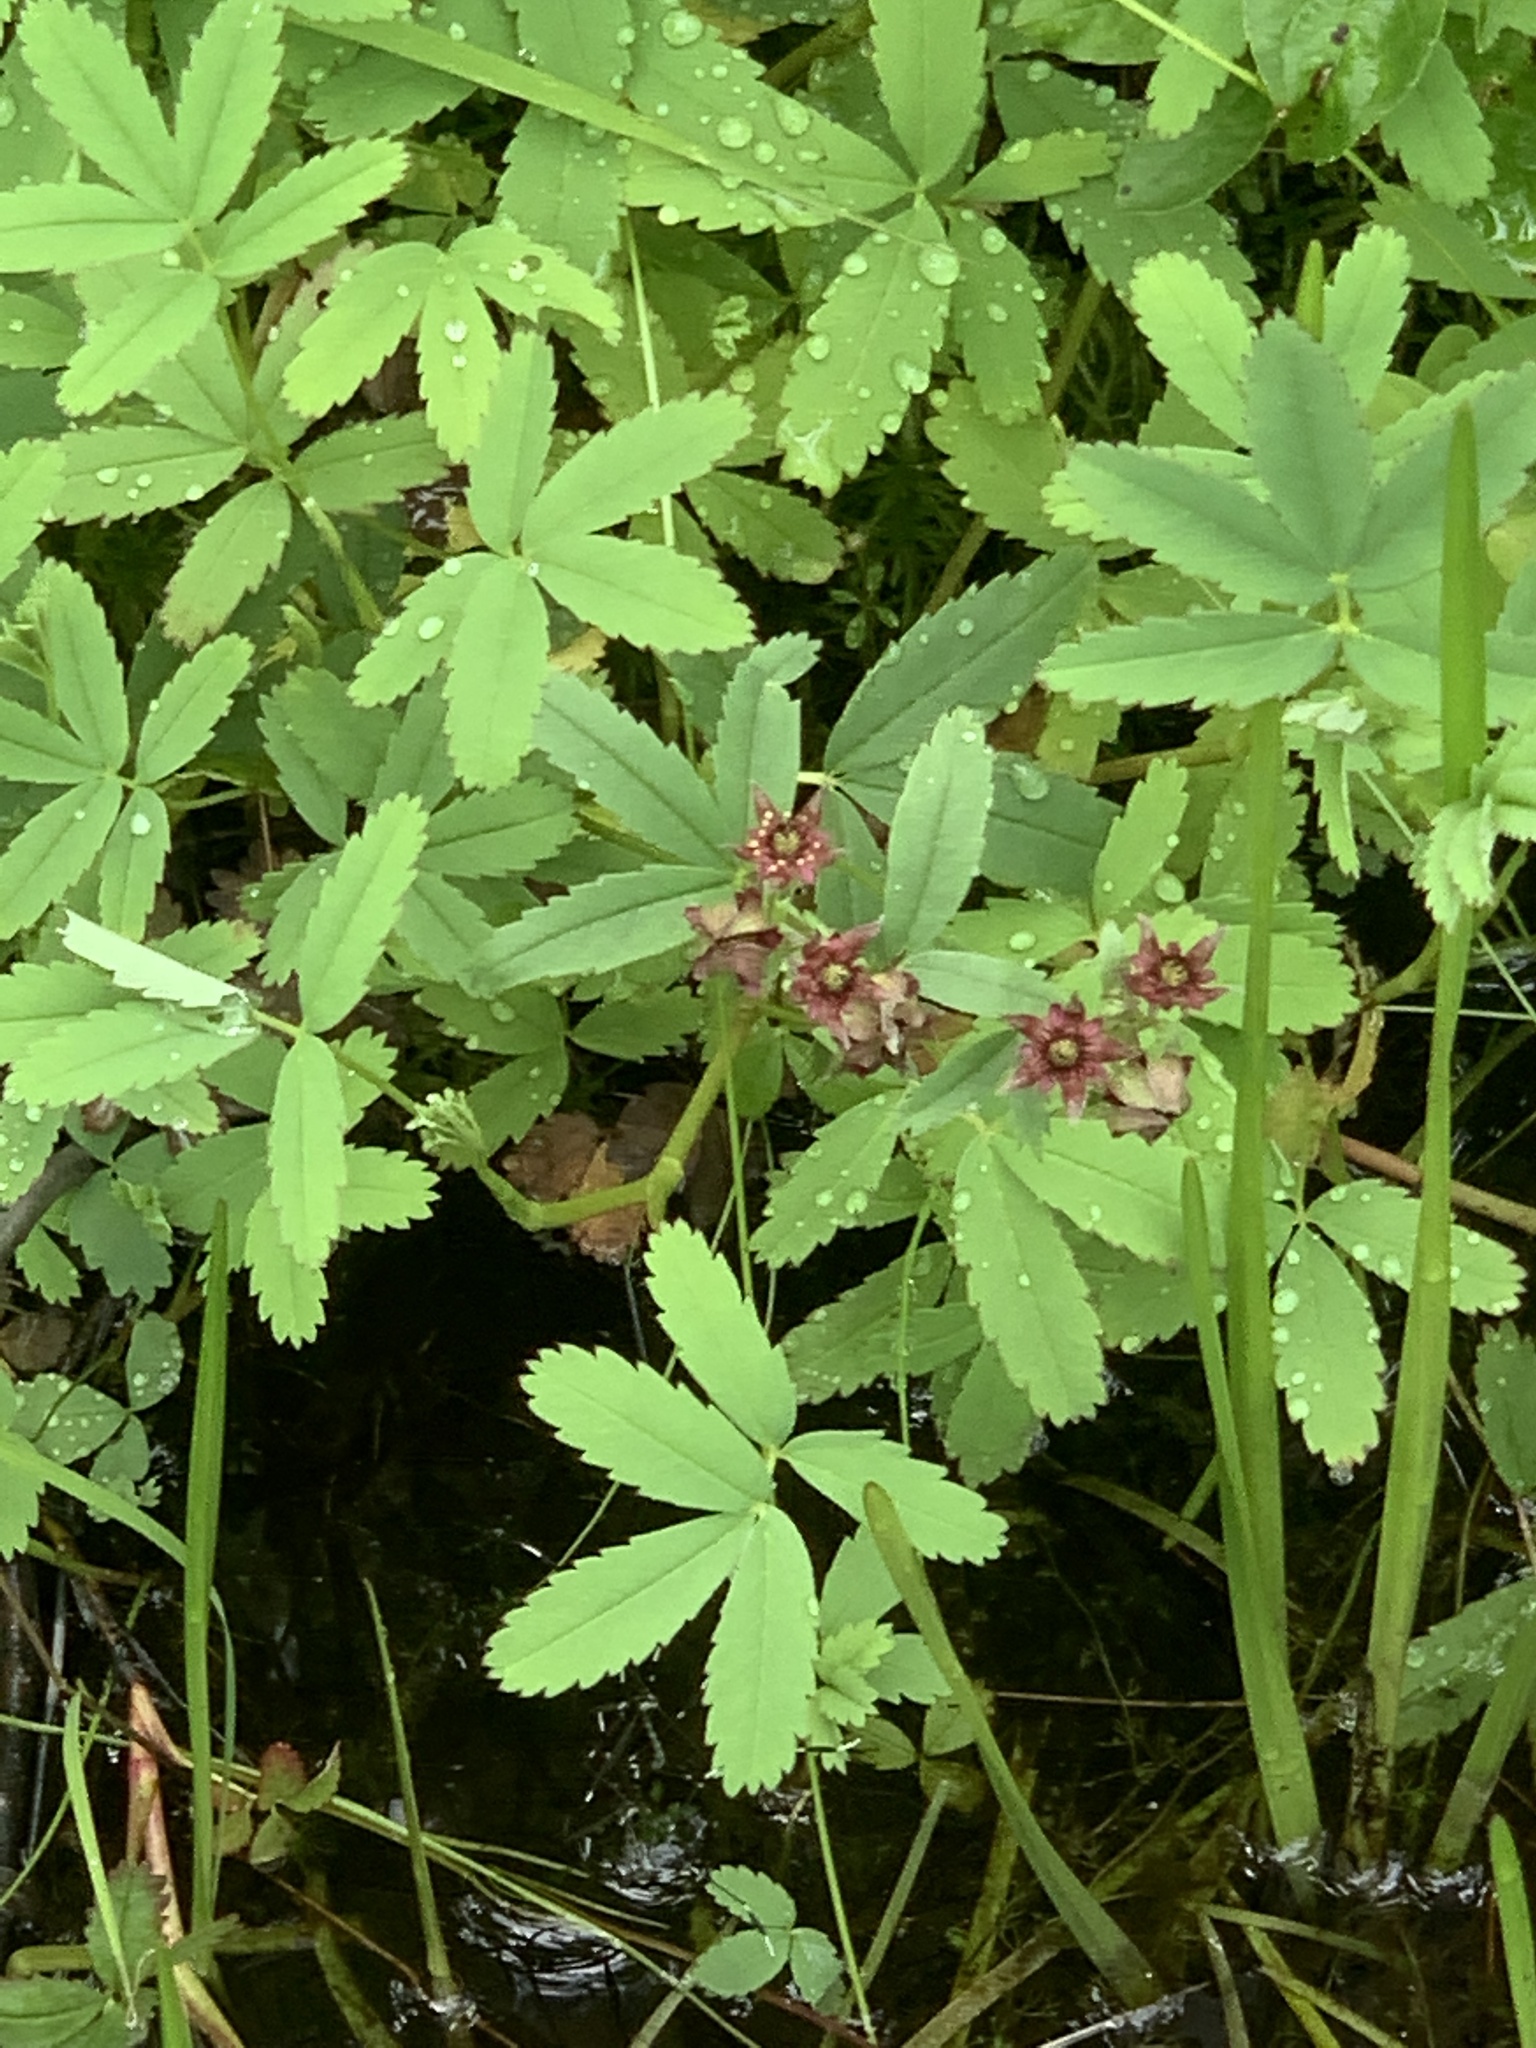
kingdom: Plantae
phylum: Tracheophyta
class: Magnoliopsida
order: Rosales
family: Rosaceae
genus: Comarum
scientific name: Comarum palustre
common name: Marsh cinquefoil
